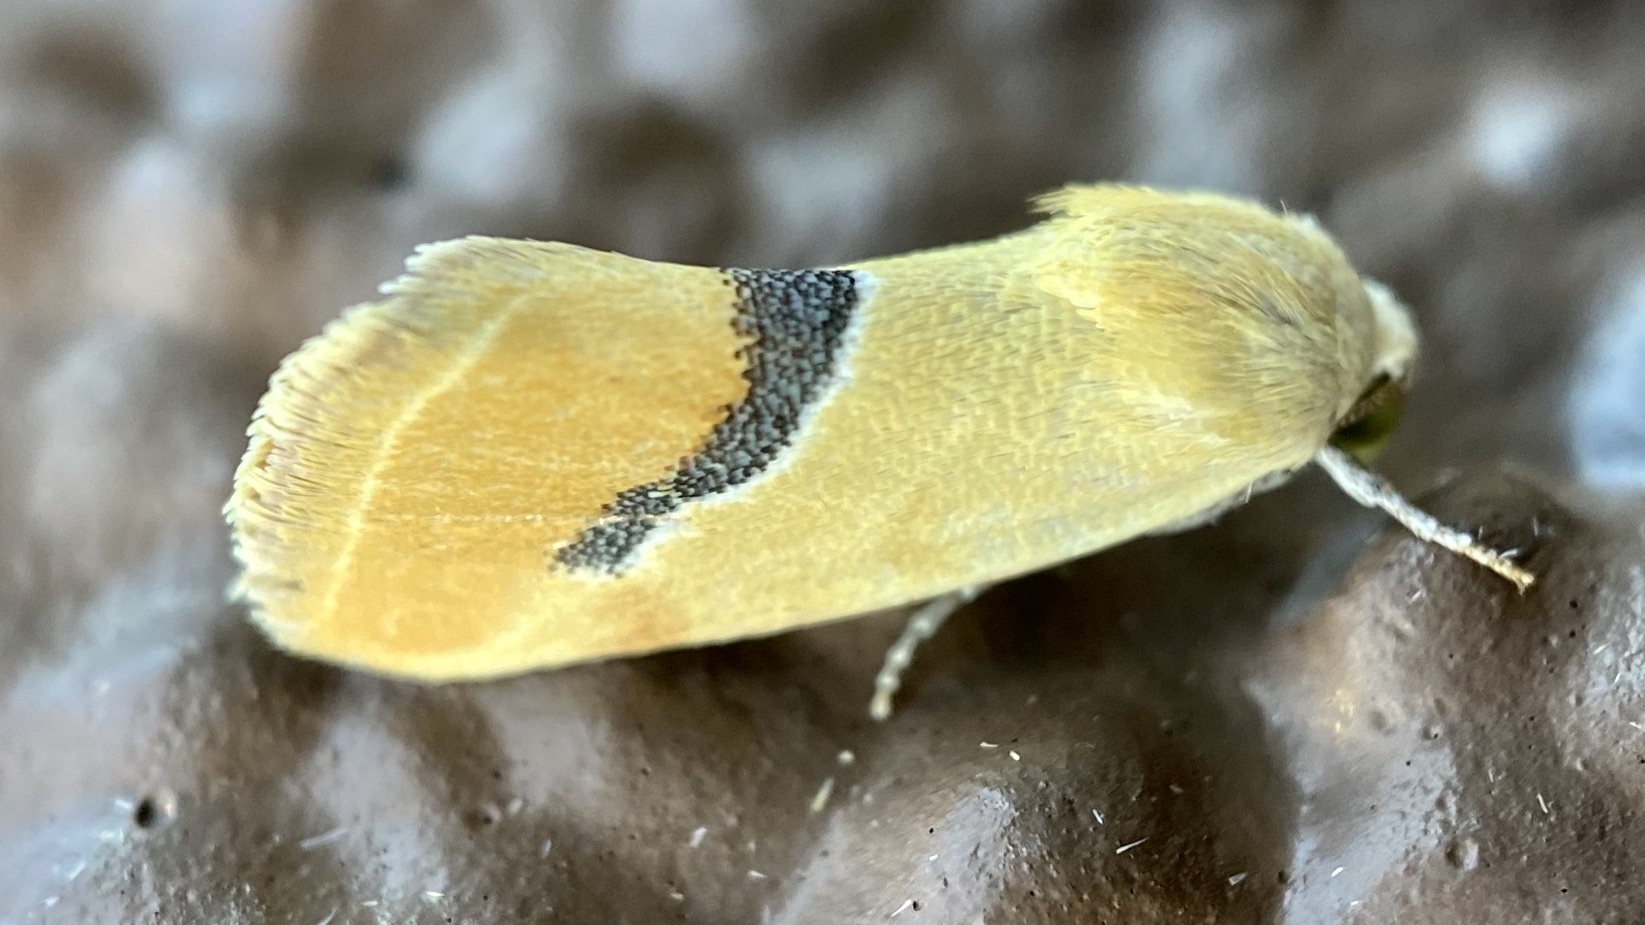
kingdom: Animalia
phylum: Arthropoda
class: Insecta
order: Lepidoptera
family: Noctuidae
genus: Ponometia
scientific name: Ponometia venustula
